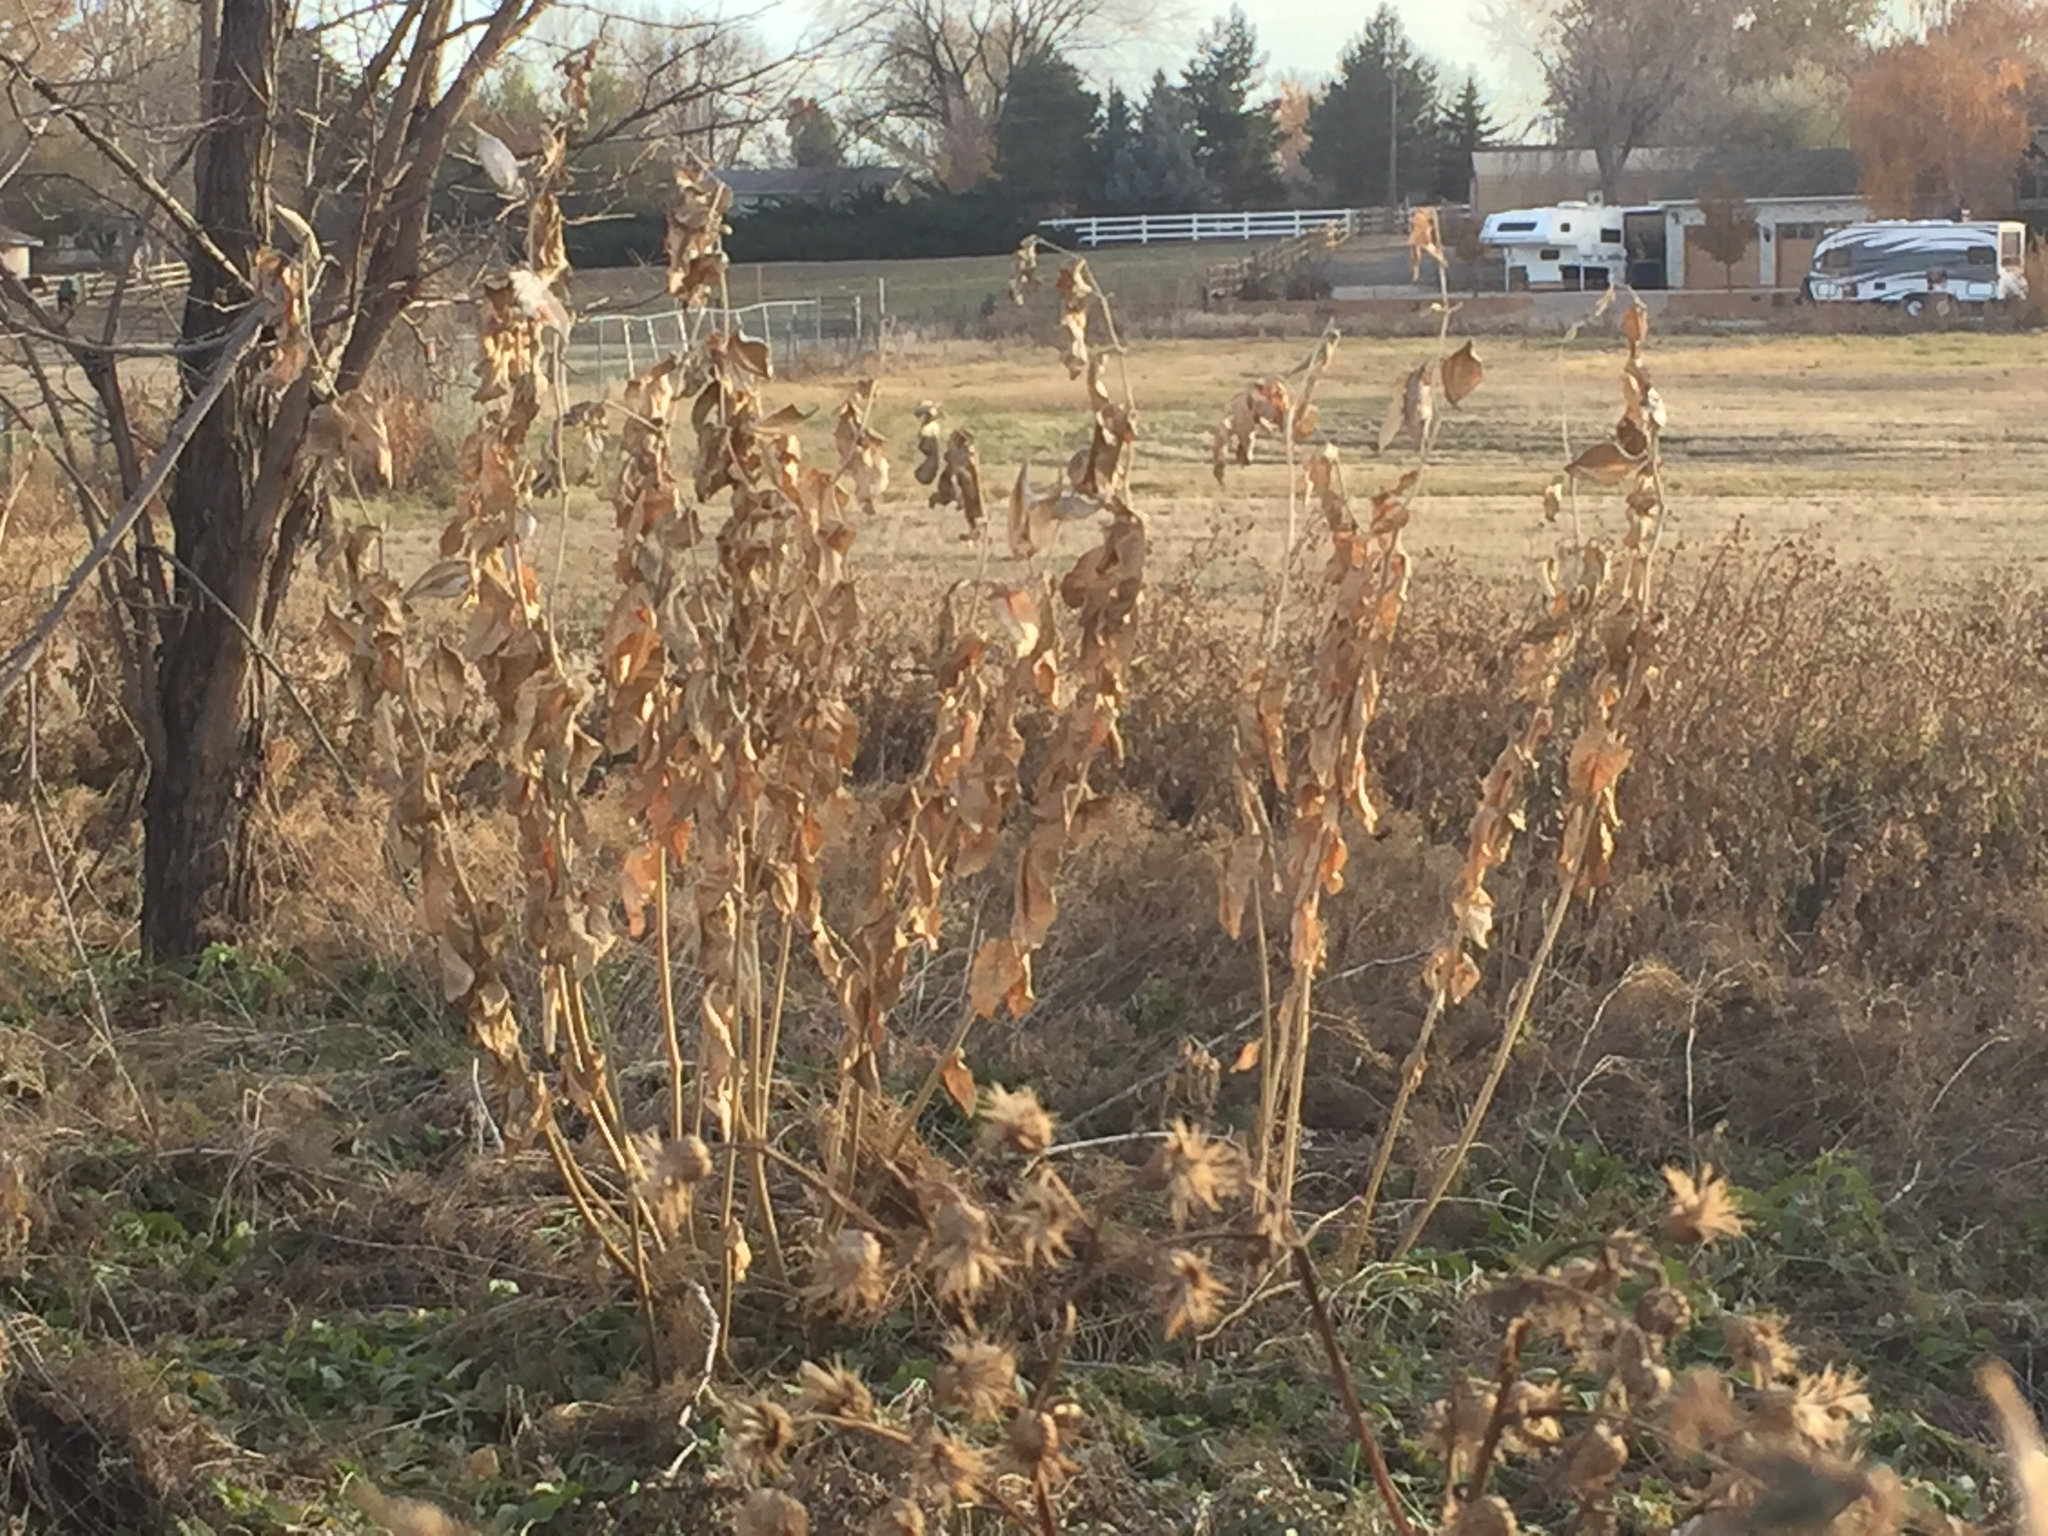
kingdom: Plantae
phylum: Tracheophyta
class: Magnoliopsida
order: Gentianales
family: Apocynaceae
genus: Asclepias
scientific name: Asclepias speciosa
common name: Showy milkweed
